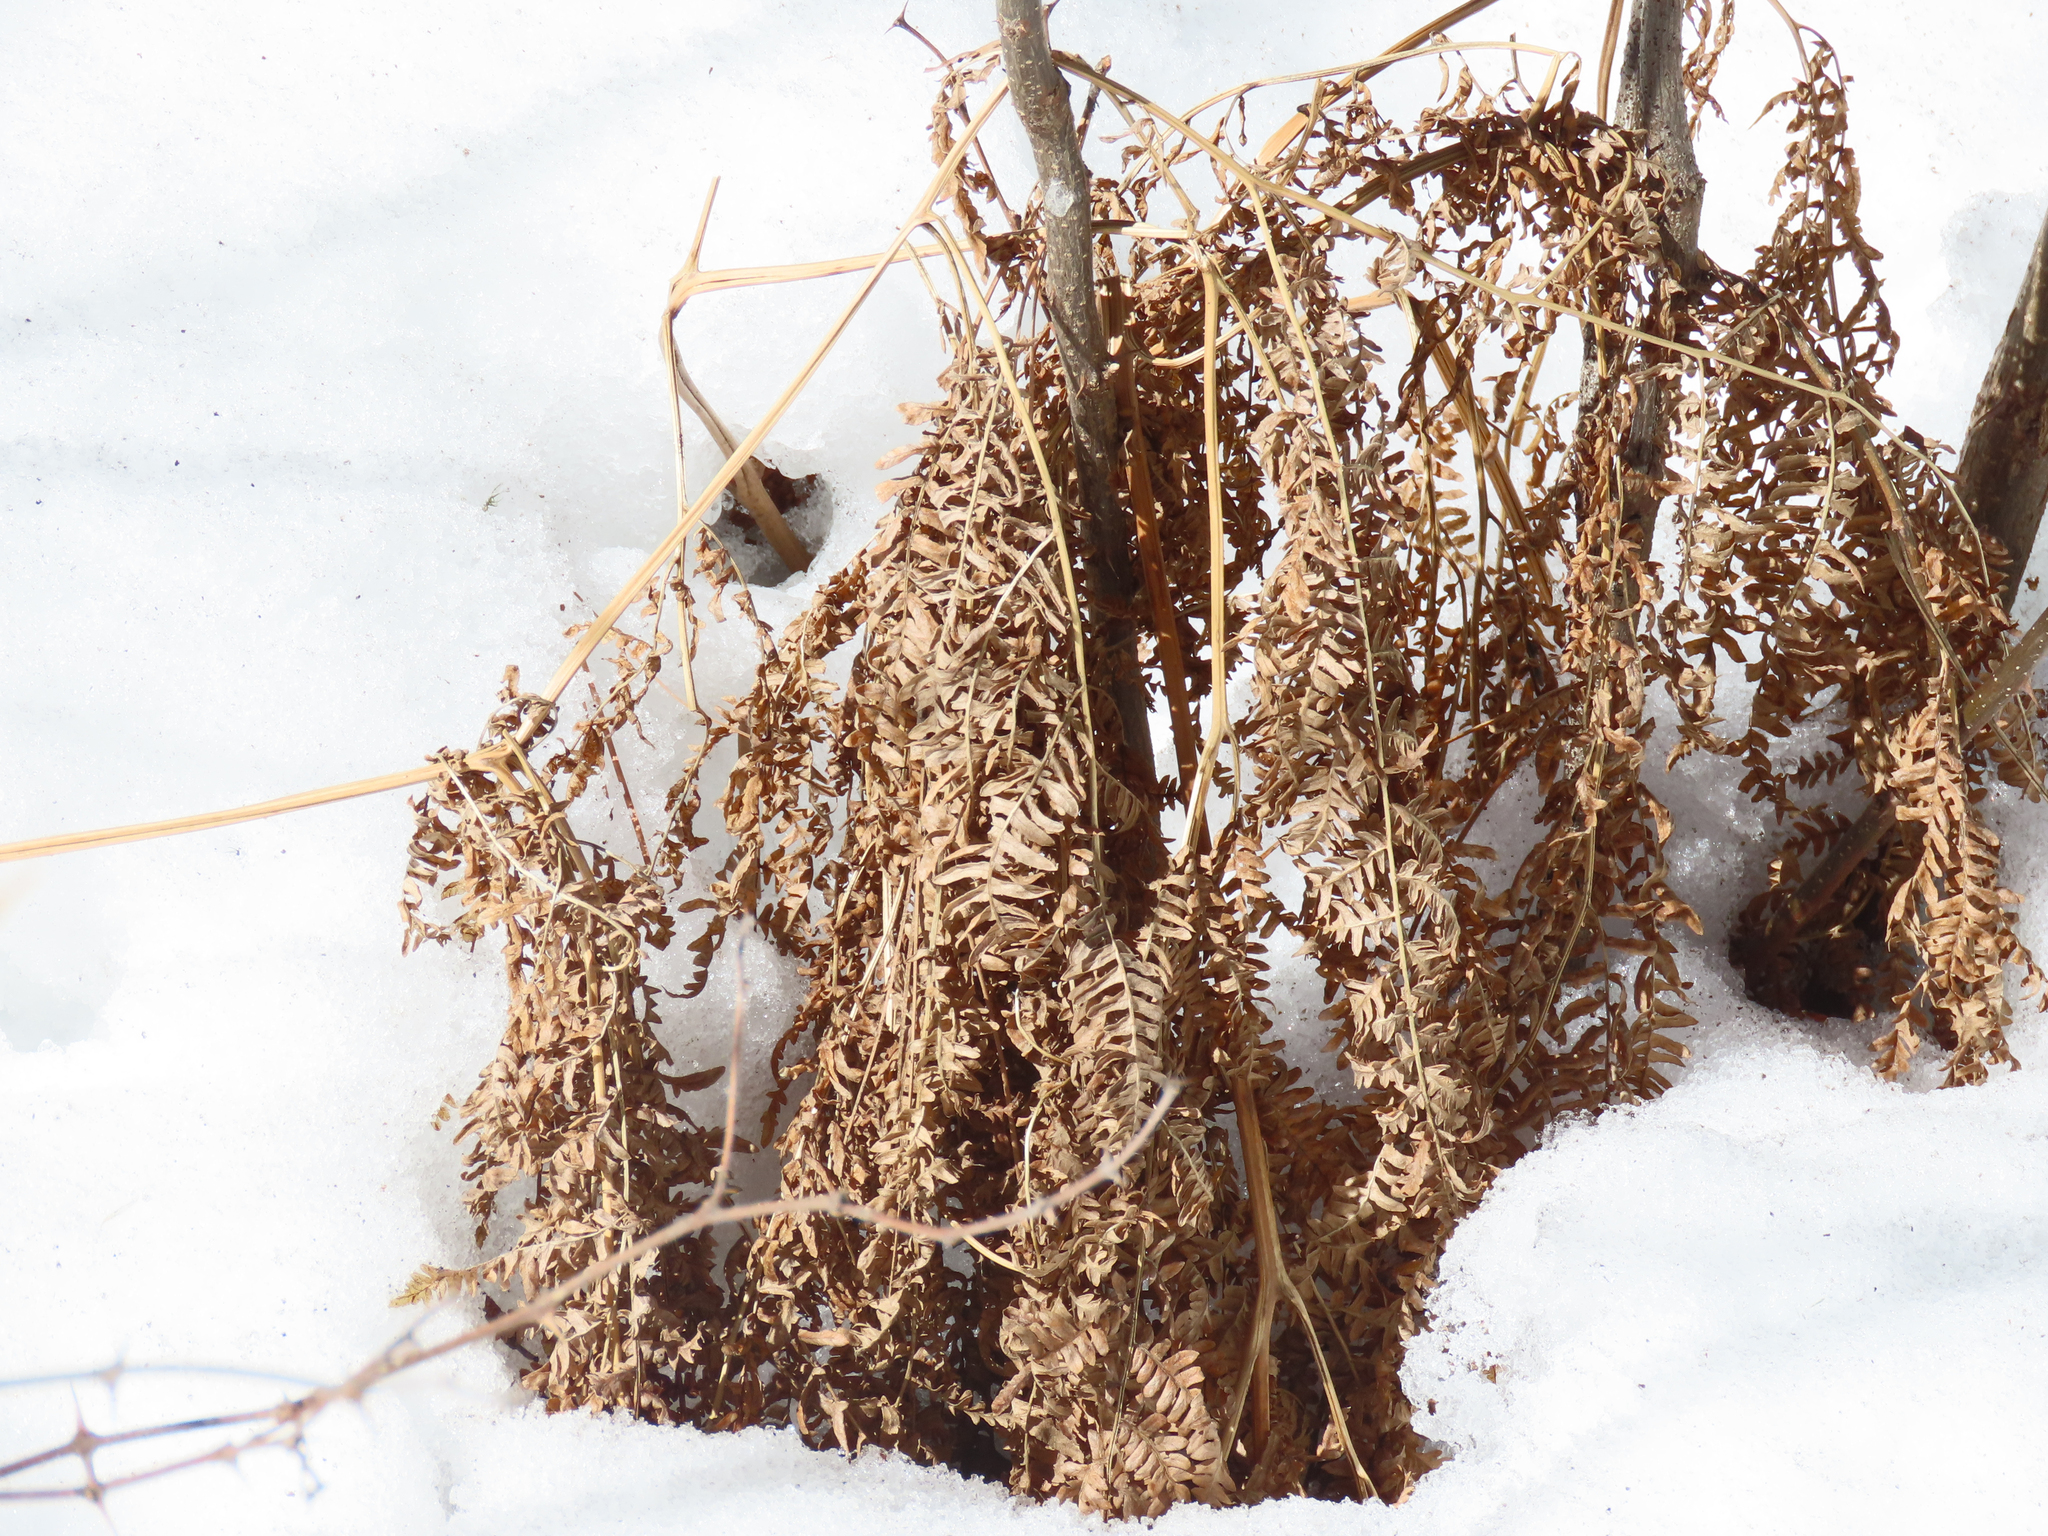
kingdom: Plantae
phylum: Tracheophyta
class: Polypodiopsida
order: Polypodiales
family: Dennstaedtiaceae
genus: Pteridium
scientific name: Pteridium aquilinum
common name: Bracken
